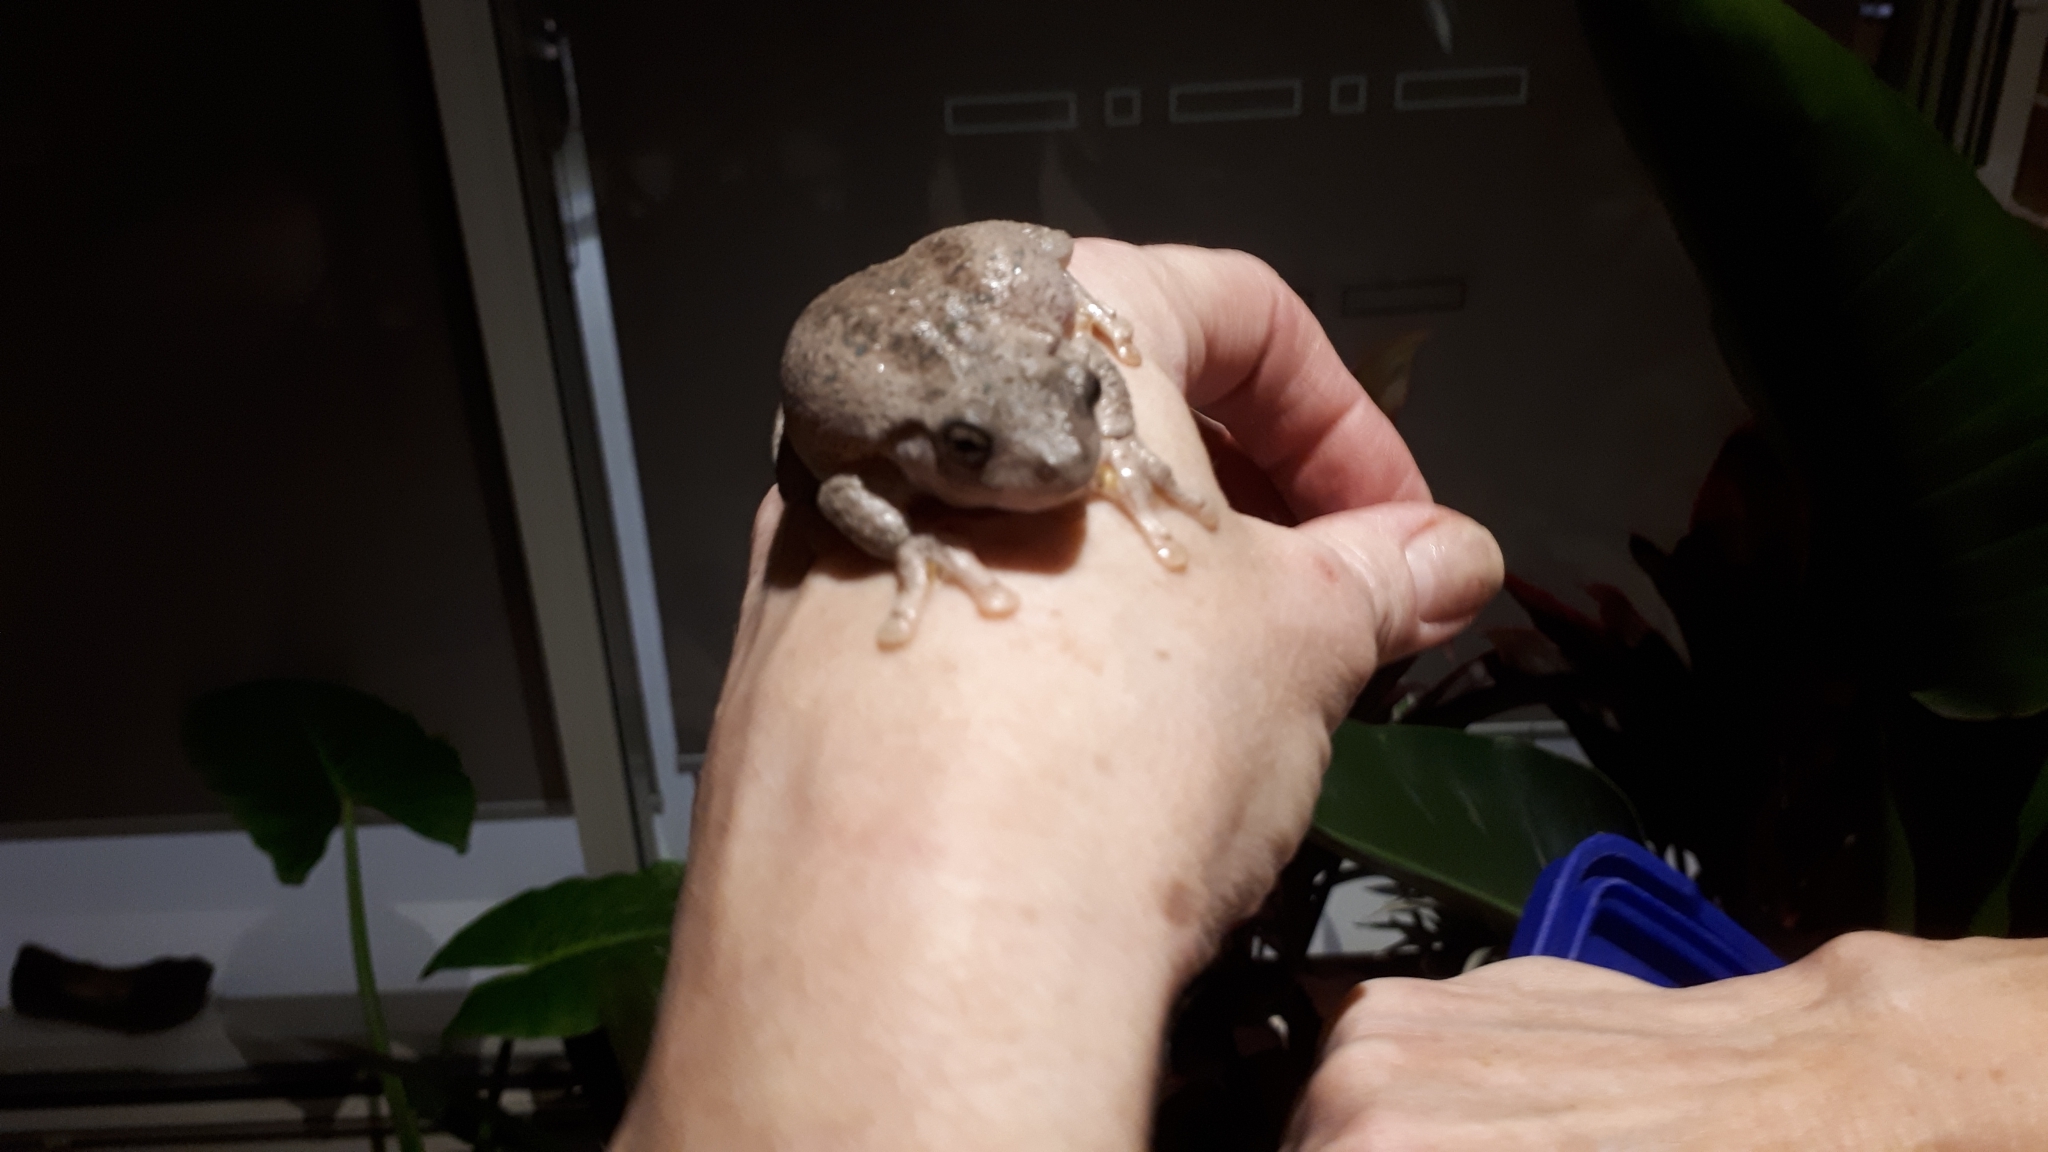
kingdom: Animalia
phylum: Chordata
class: Amphibia
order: Anura
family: Pelodryadidae
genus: Litoria
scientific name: Litoria peronii
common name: Emerald spotted treefrog
